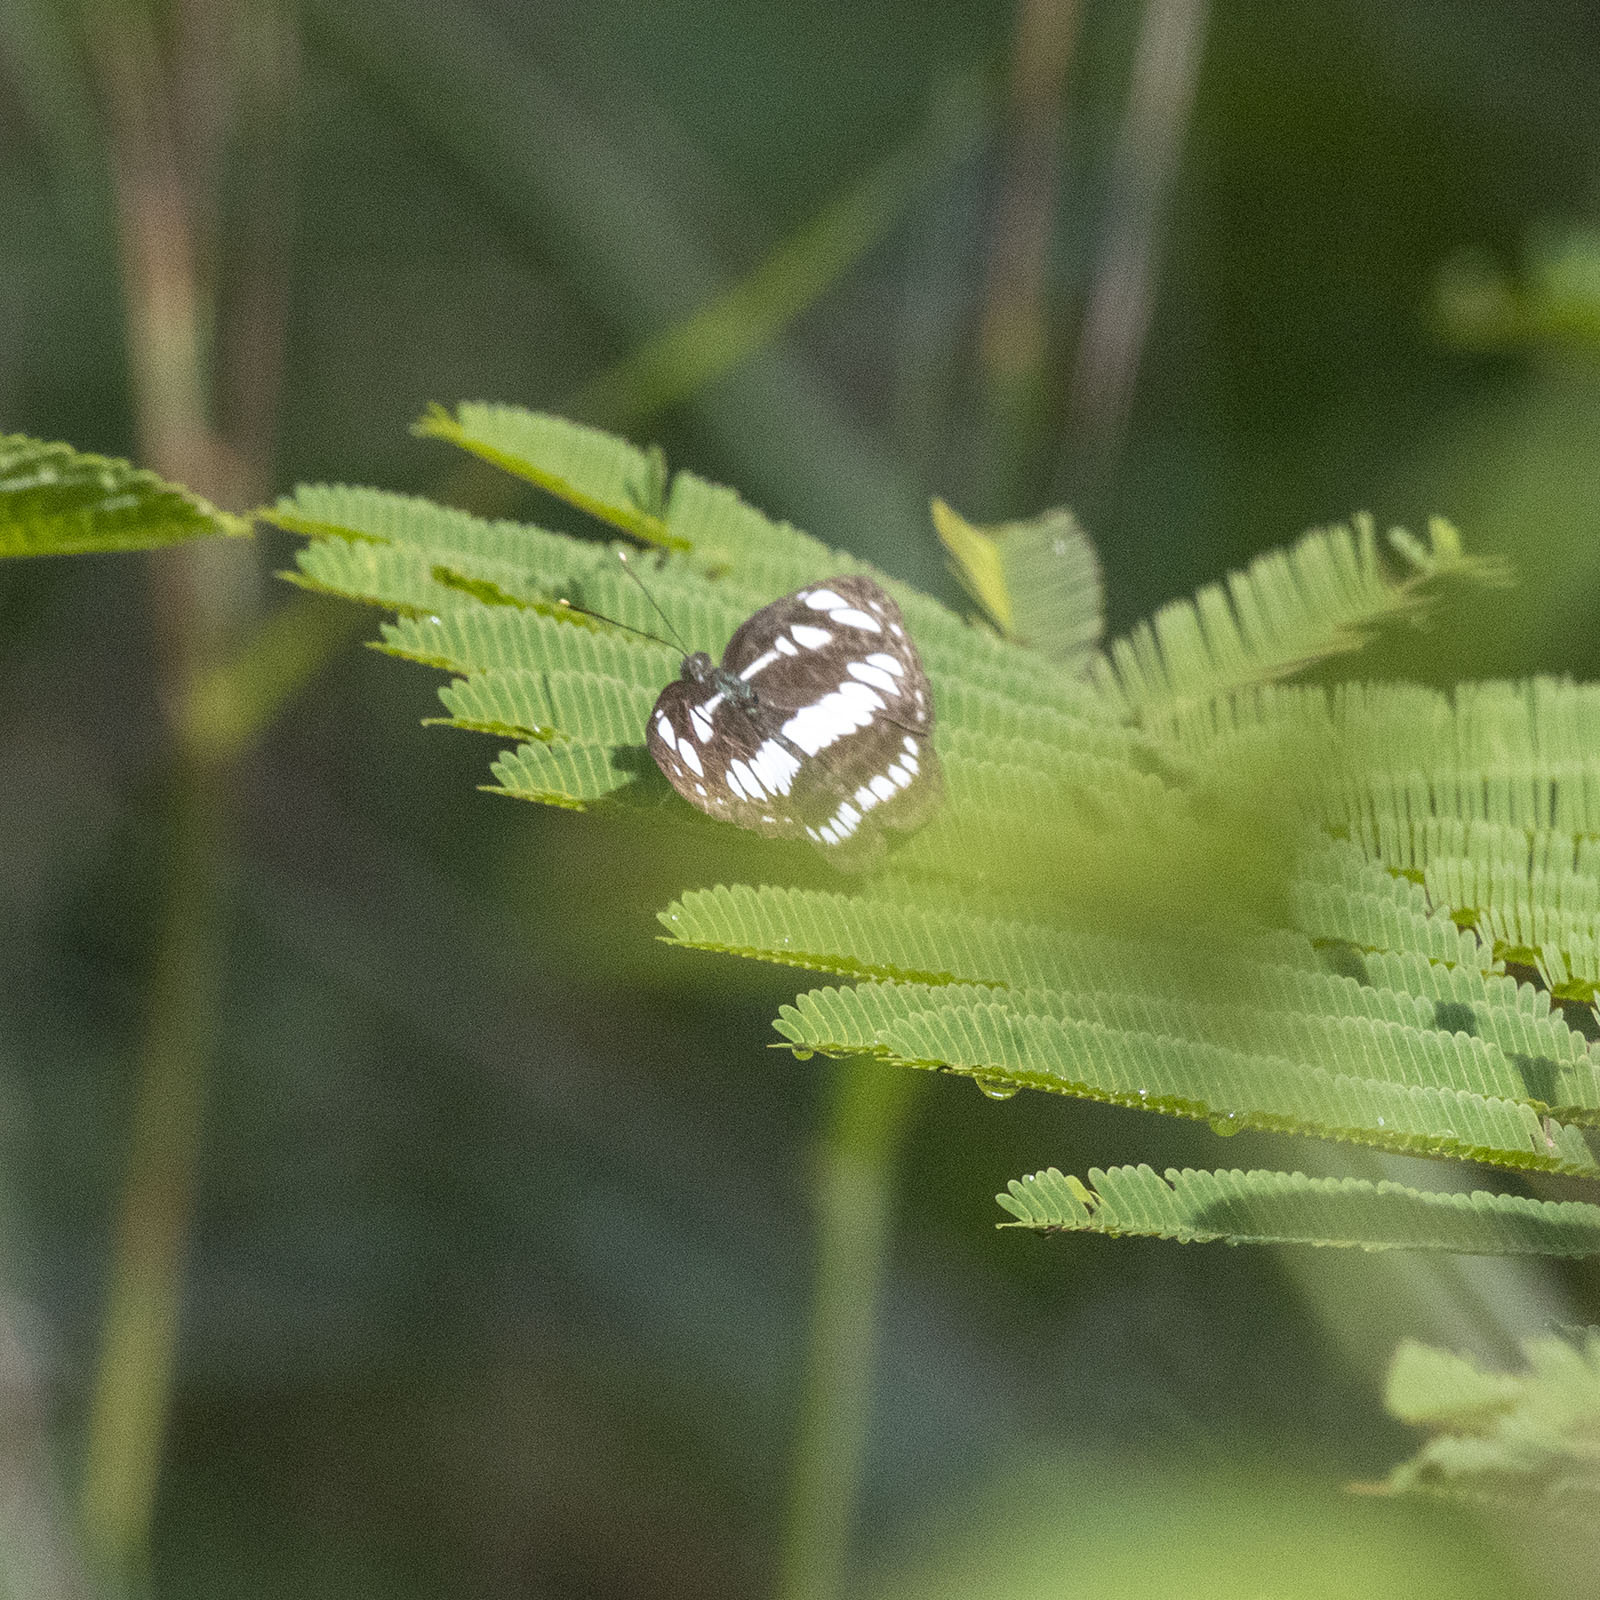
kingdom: Animalia
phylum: Arthropoda
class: Insecta
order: Lepidoptera
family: Nymphalidae
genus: Neptis
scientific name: Neptis hylas
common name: Common sailer
